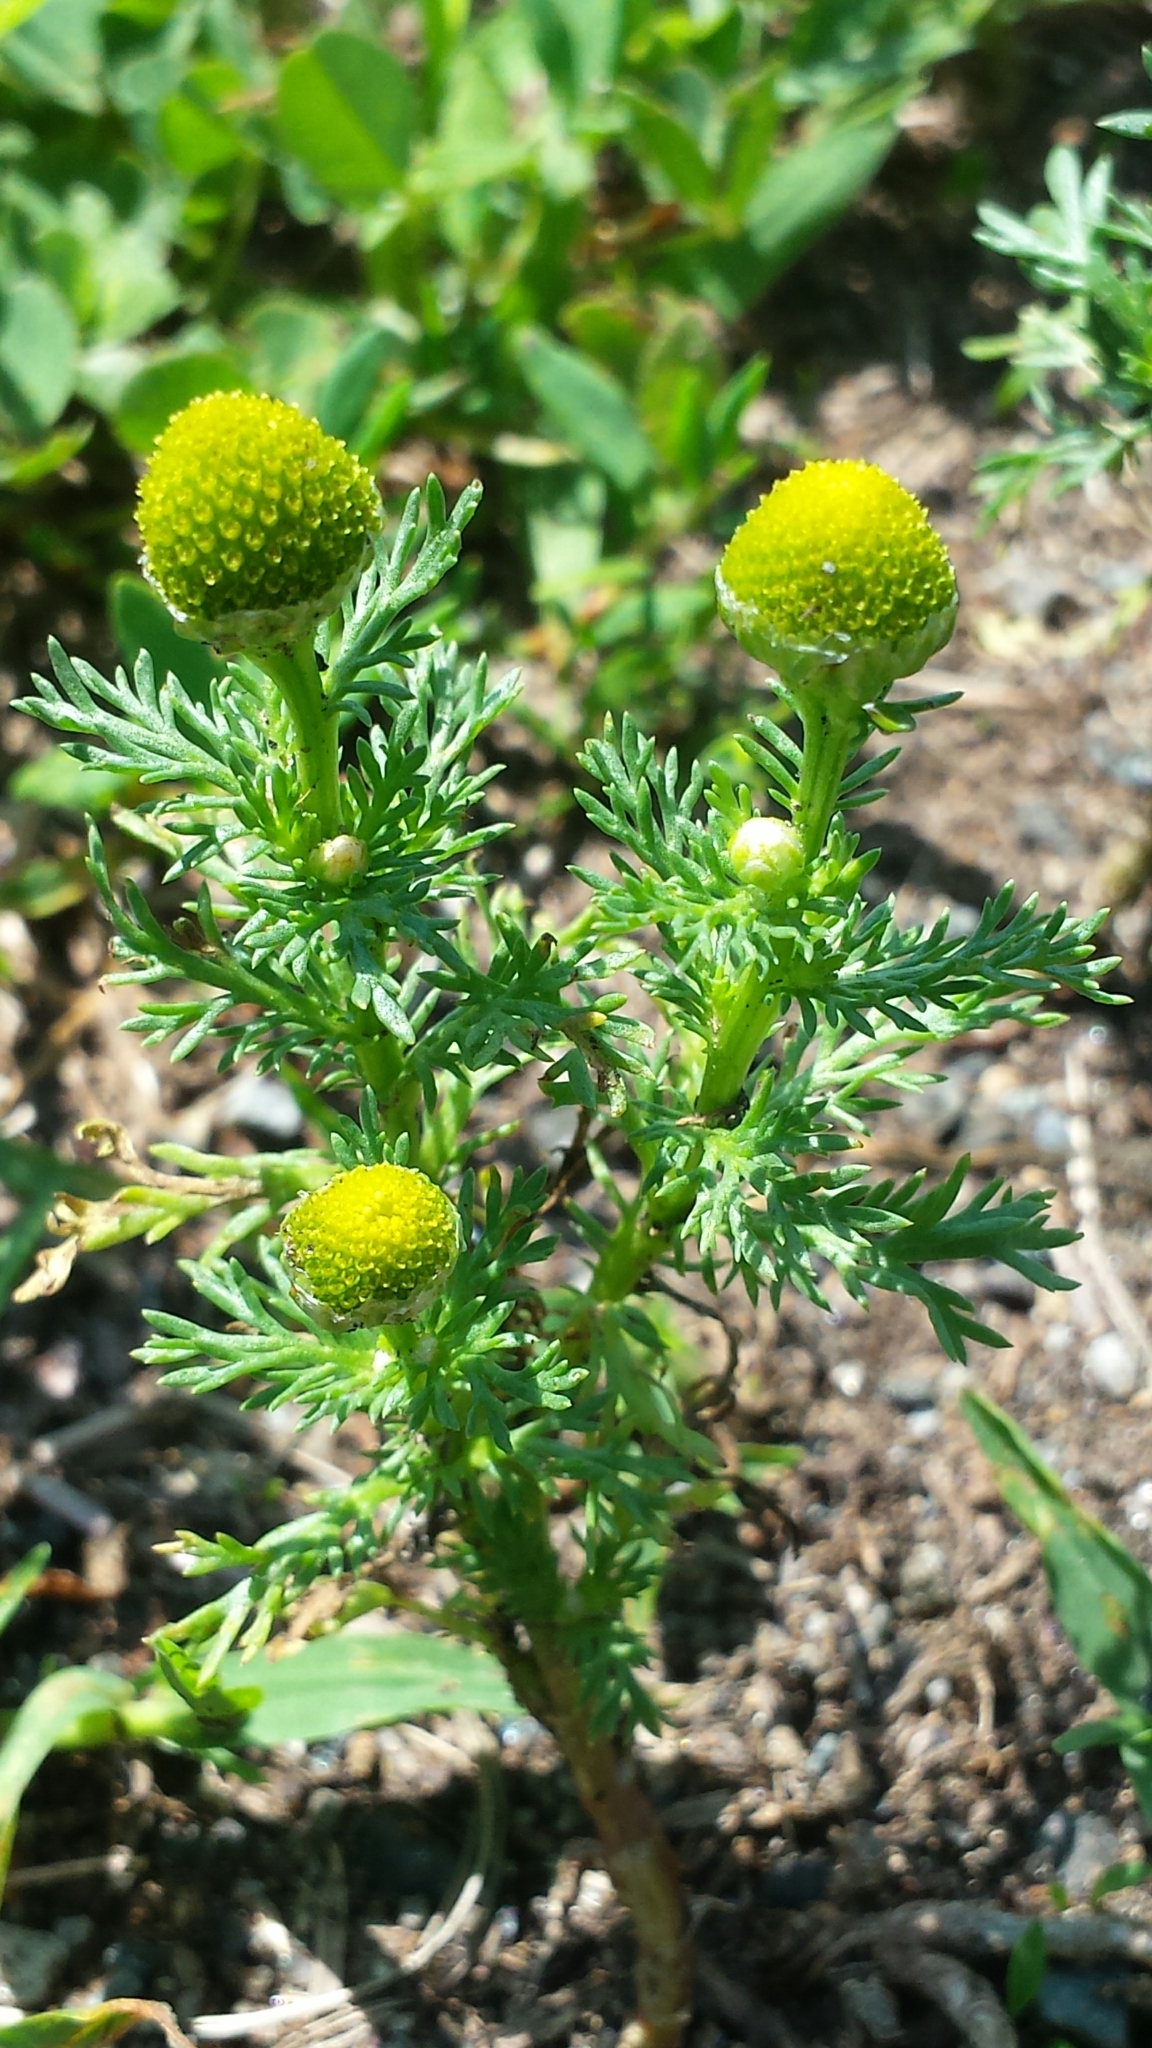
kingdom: Plantae
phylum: Tracheophyta
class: Magnoliopsida
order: Asterales
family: Asteraceae
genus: Matricaria
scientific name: Matricaria discoidea
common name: Disc mayweed
